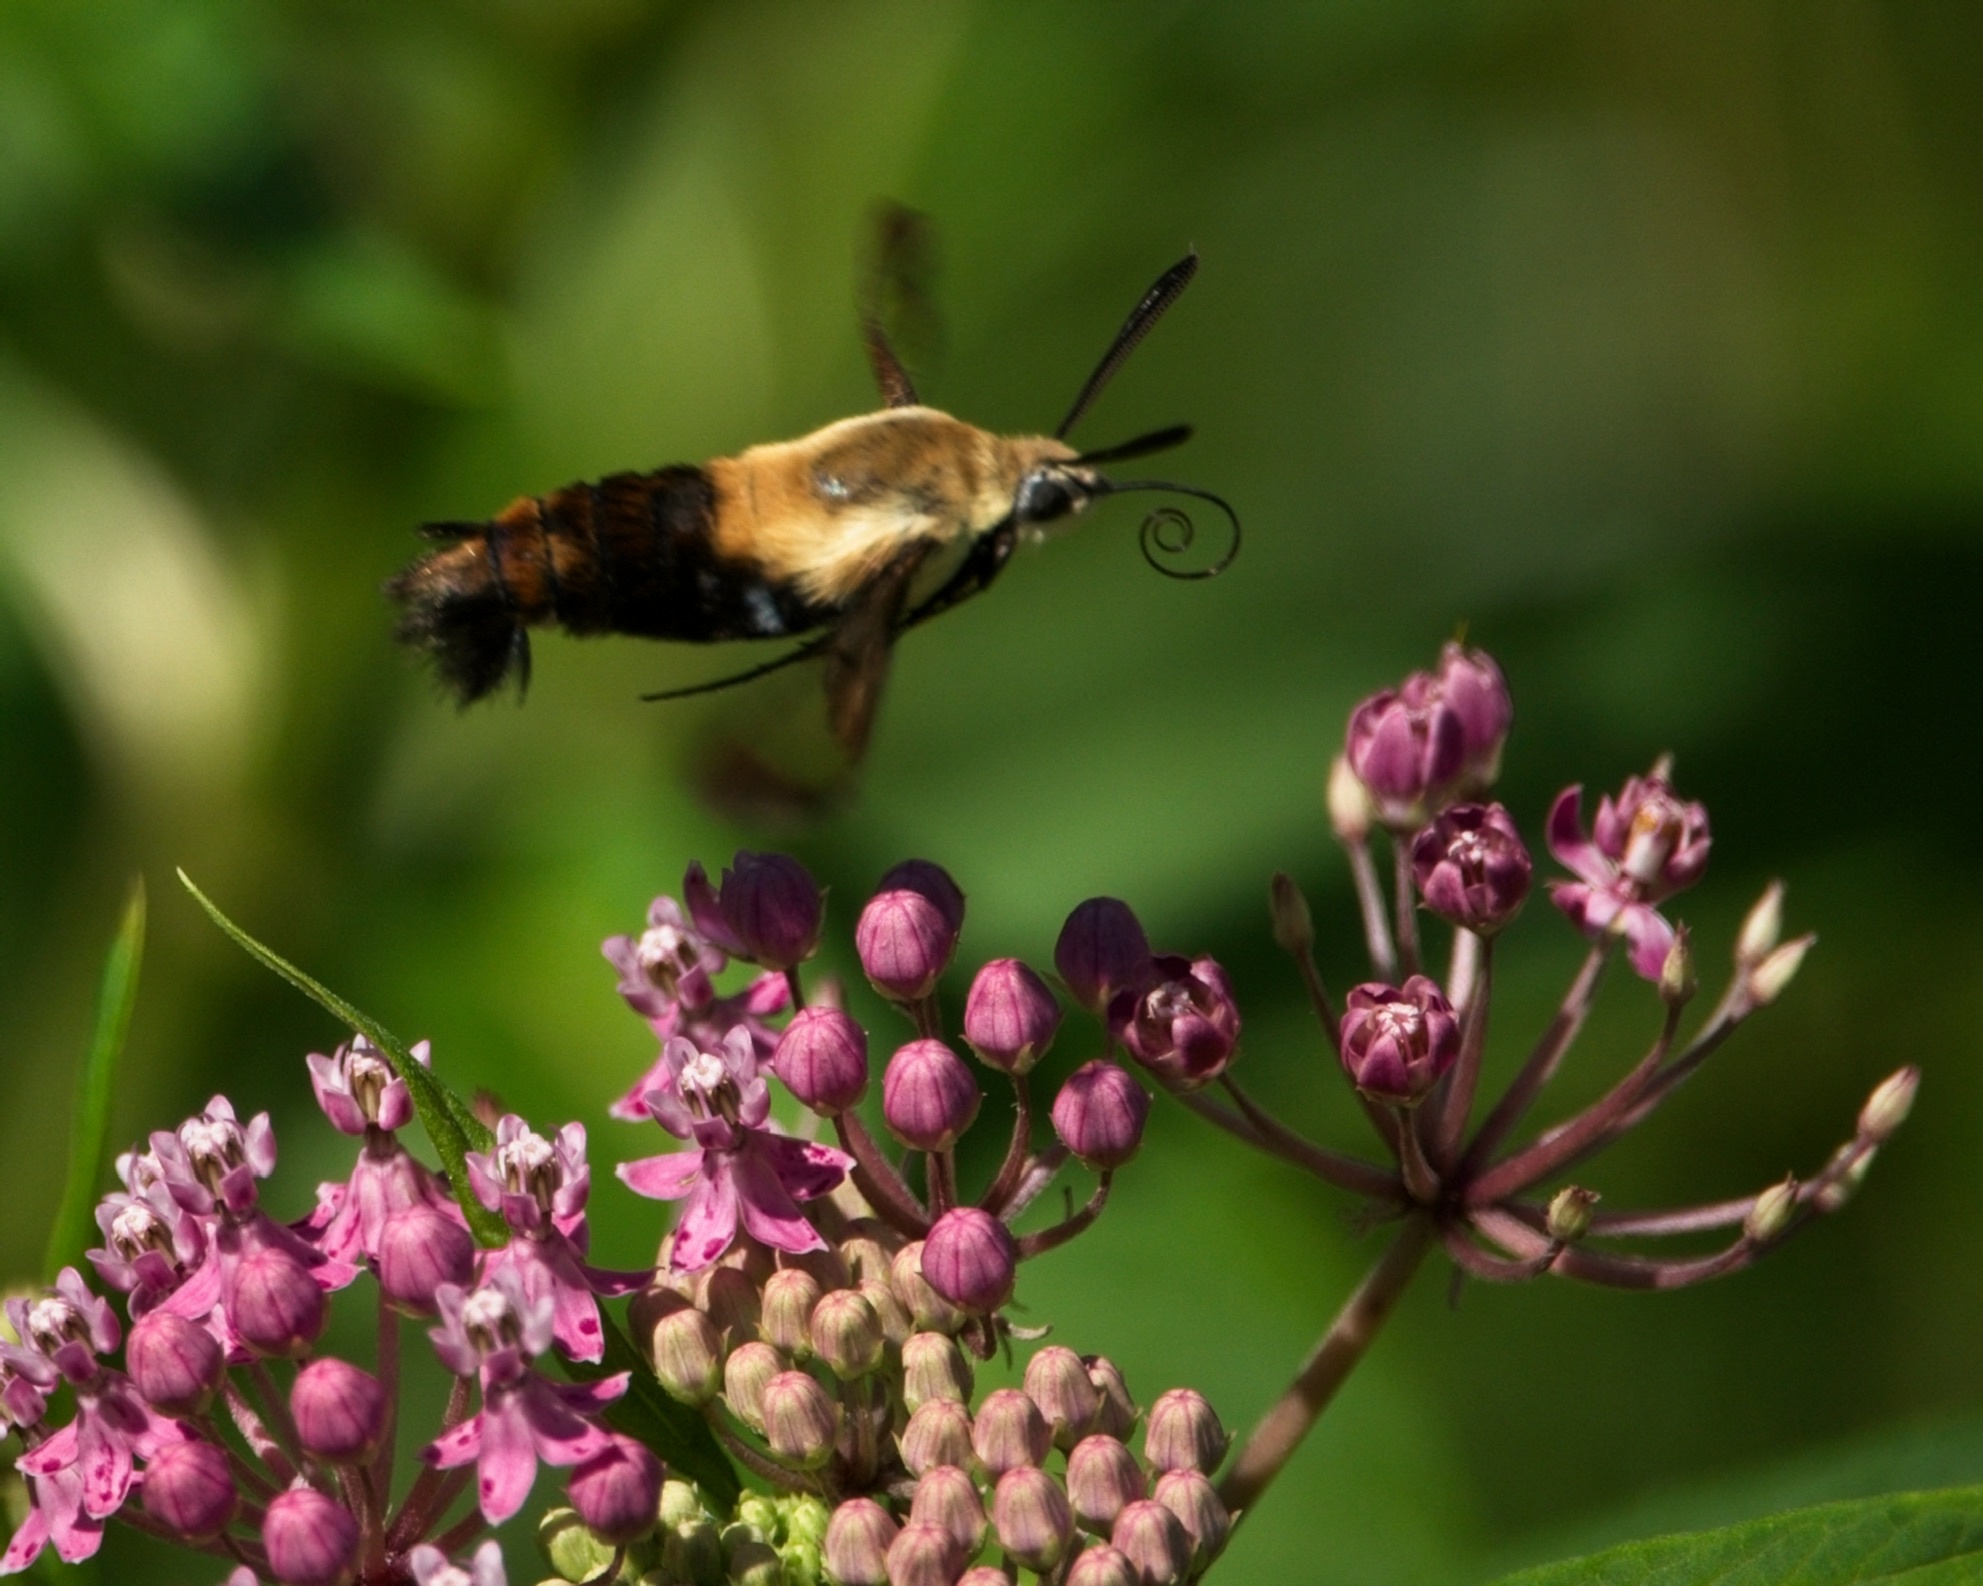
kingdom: Animalia
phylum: Arthropoda
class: Insecta
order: Lepidoptera
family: Sphingidae
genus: Hemaris
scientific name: Hemaris diffinis
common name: Bumblebee moth
